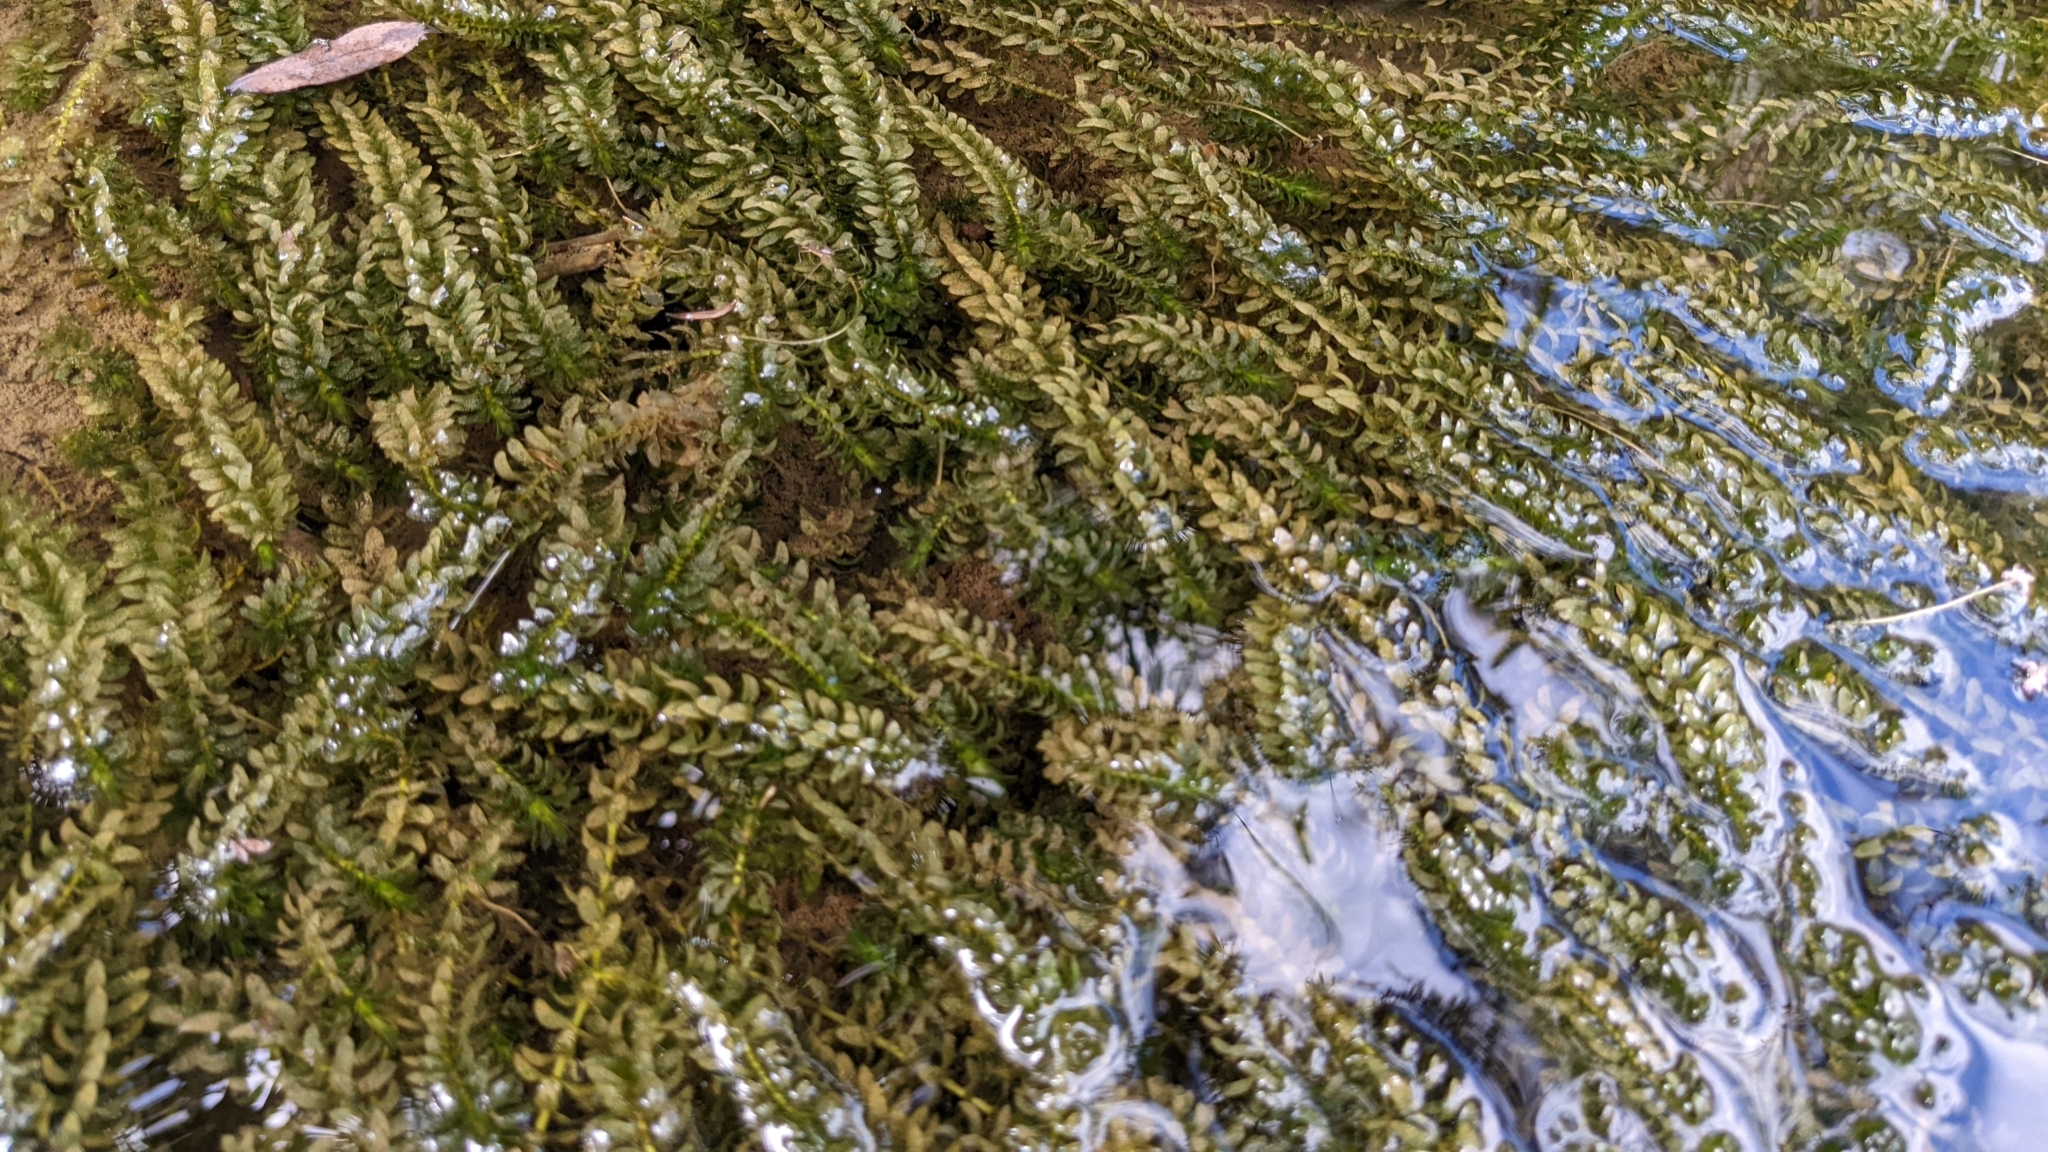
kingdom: Plantae
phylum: Tracheophyta
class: Liliopsida
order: Alismatales
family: Hydrocharitaceae
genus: Elodea
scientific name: Elodea canadensis
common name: Canadian waterweed
